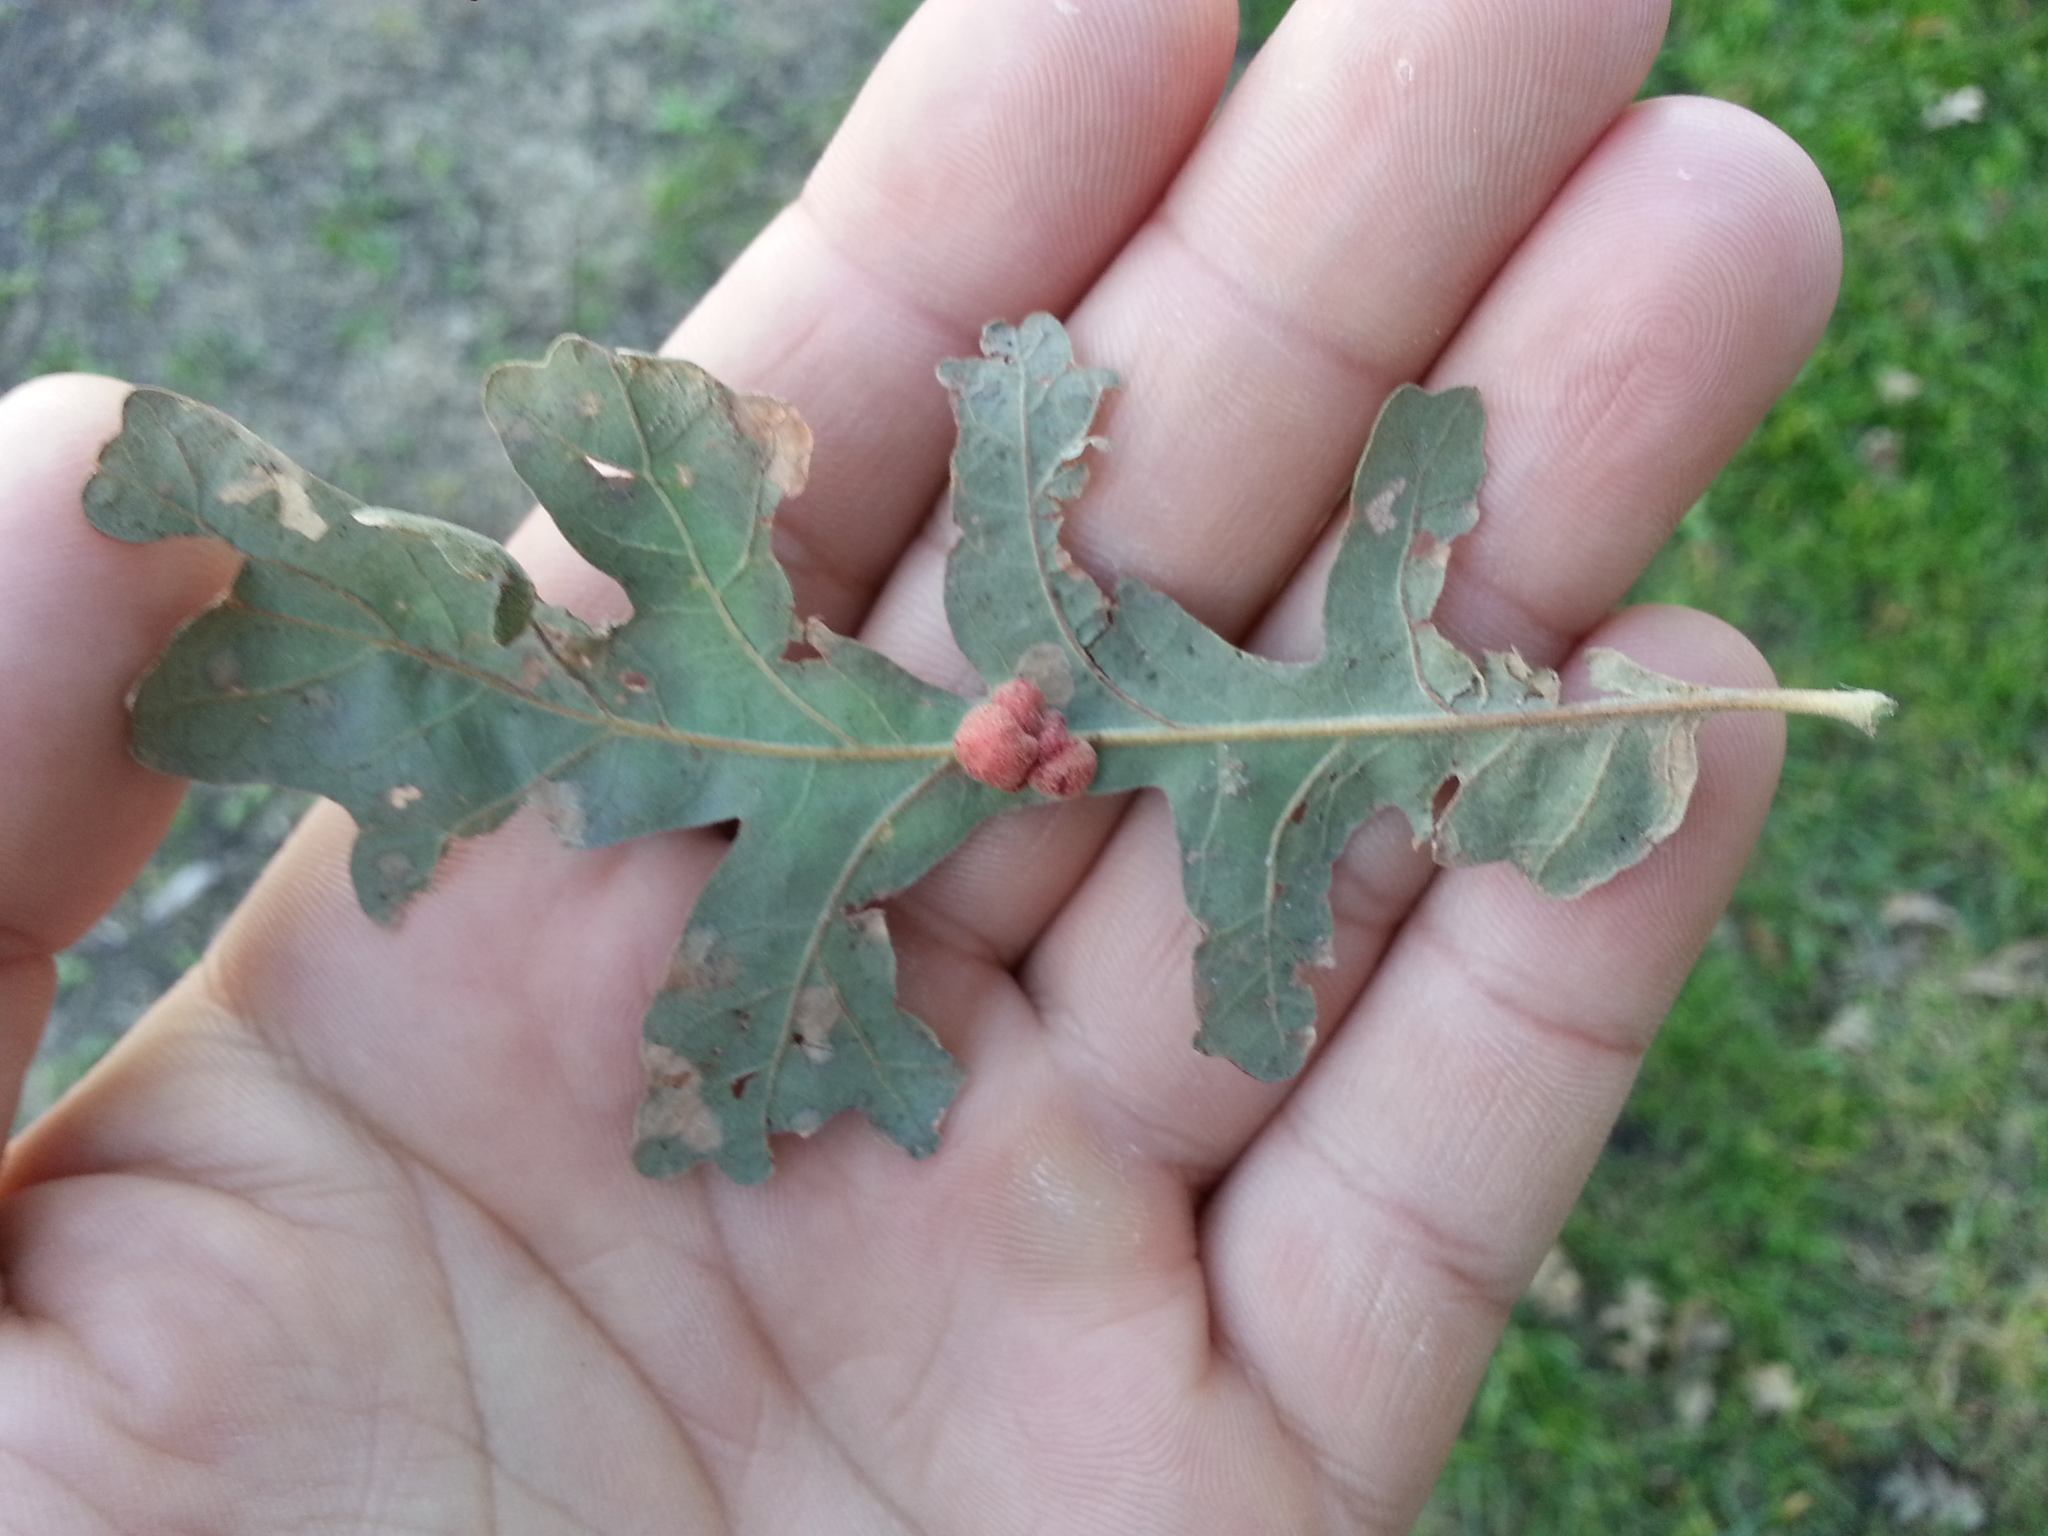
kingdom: Animalia
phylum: Arthropoda
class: Insecta
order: Hymenoptera
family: Cynipidae
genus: Andricus
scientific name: Andricus
